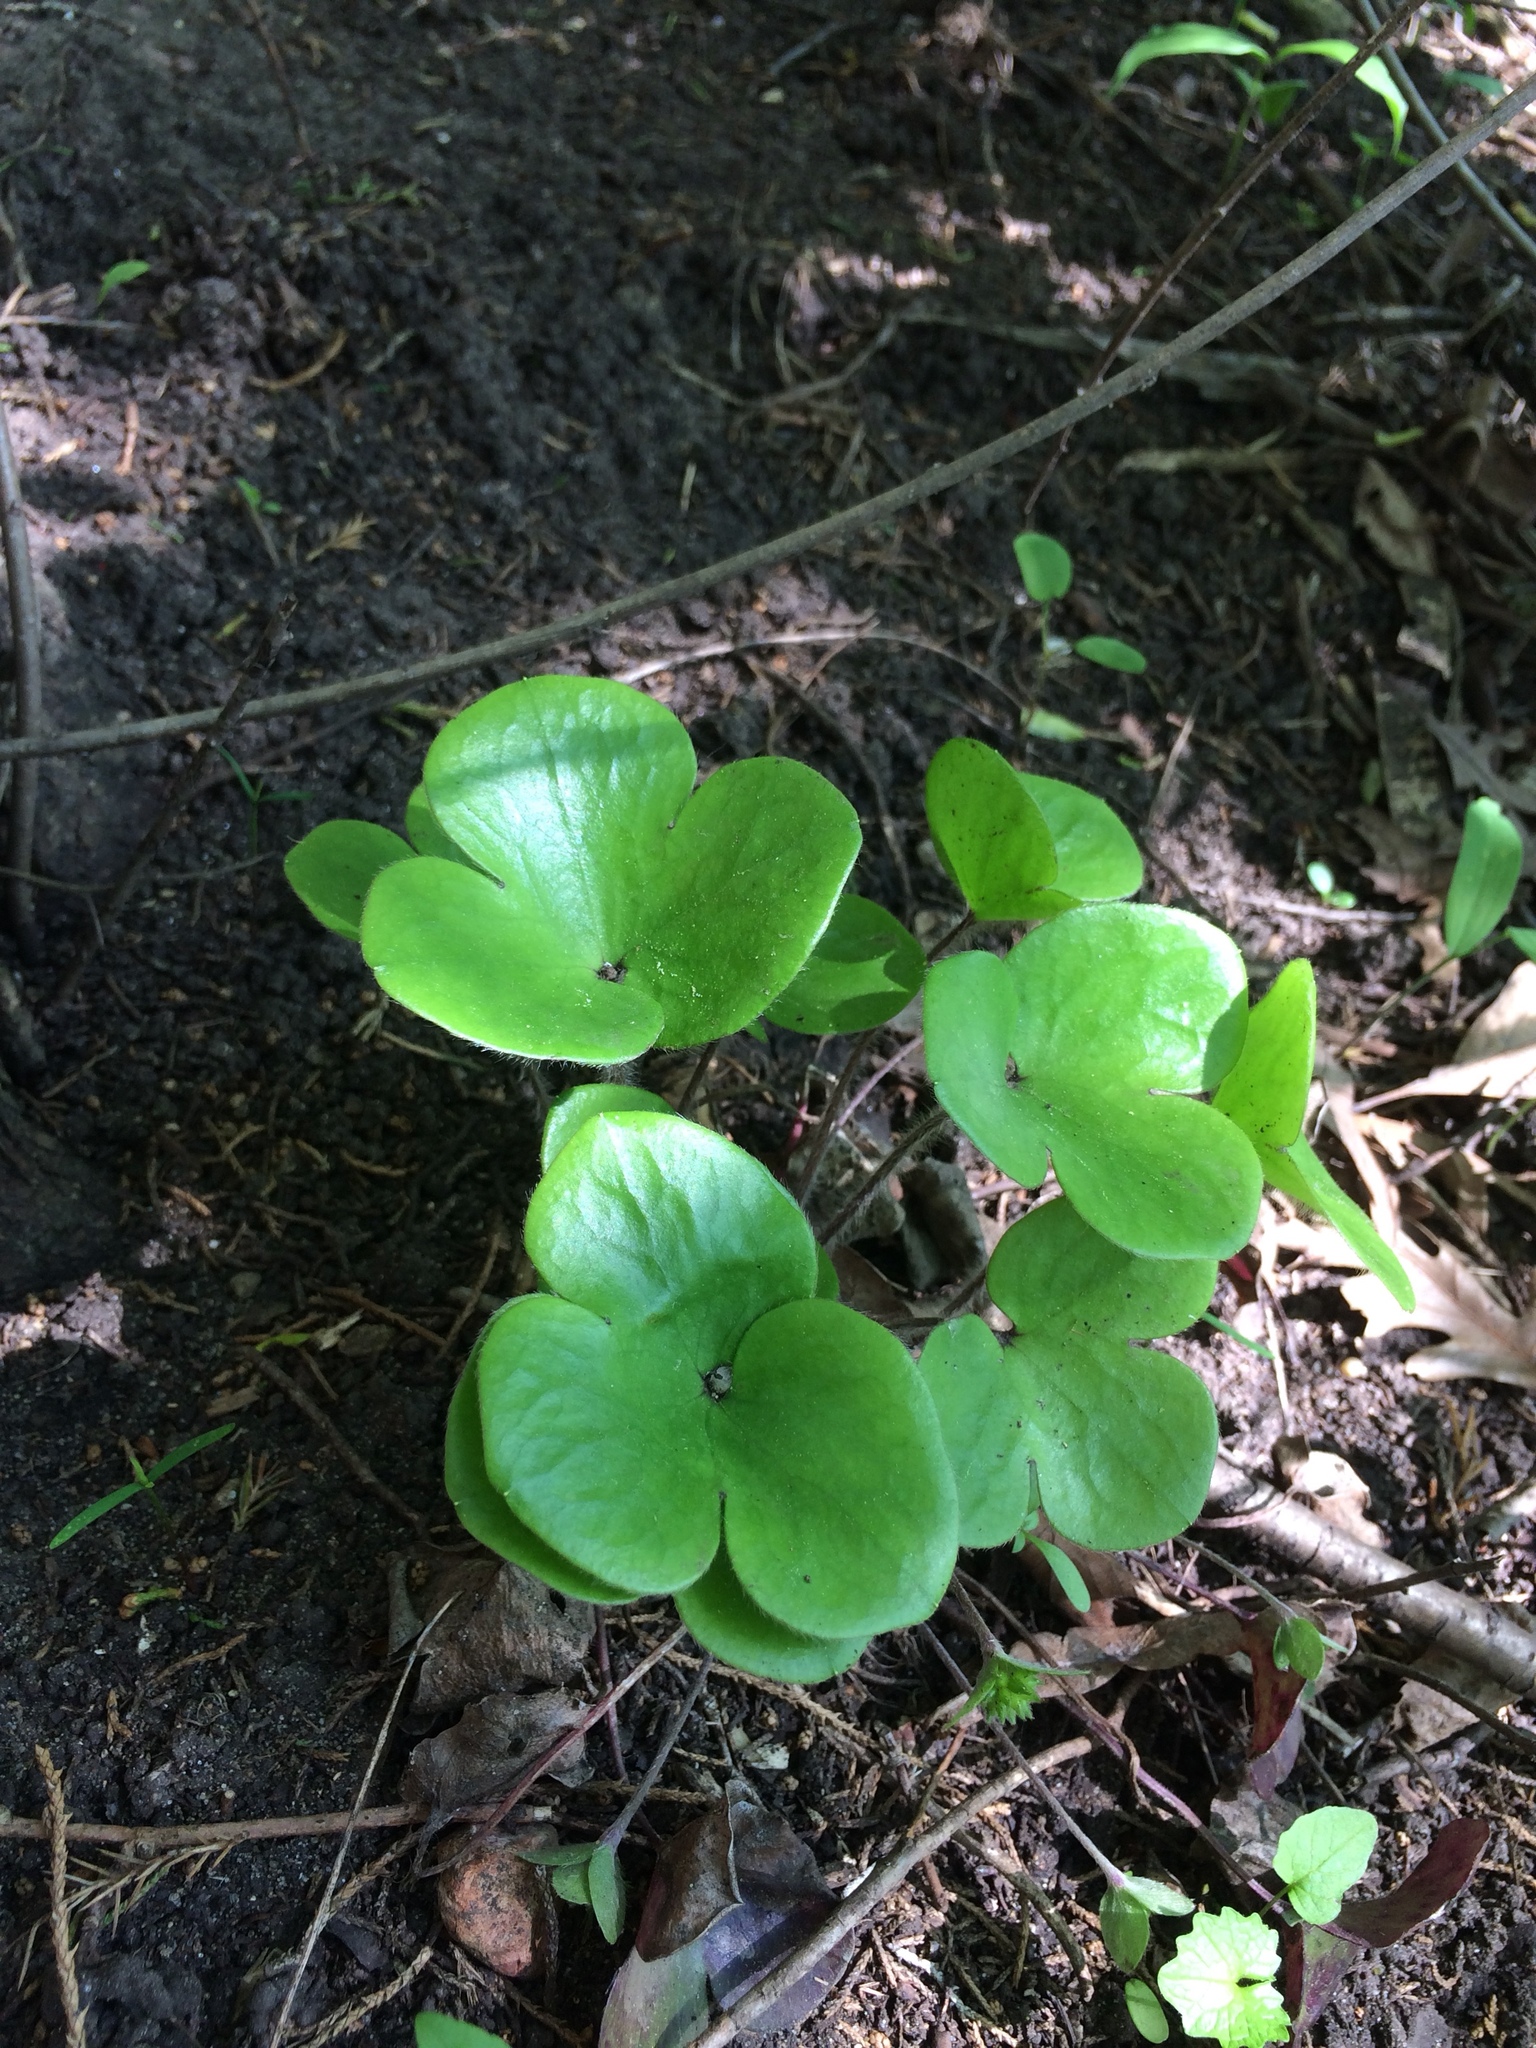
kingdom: Plantae
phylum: Tracheophyta
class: Magnoliopsida
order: Ranunculales
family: Ranunculaceae
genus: Hepatica
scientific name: Hepatica americana
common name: American hepatica
